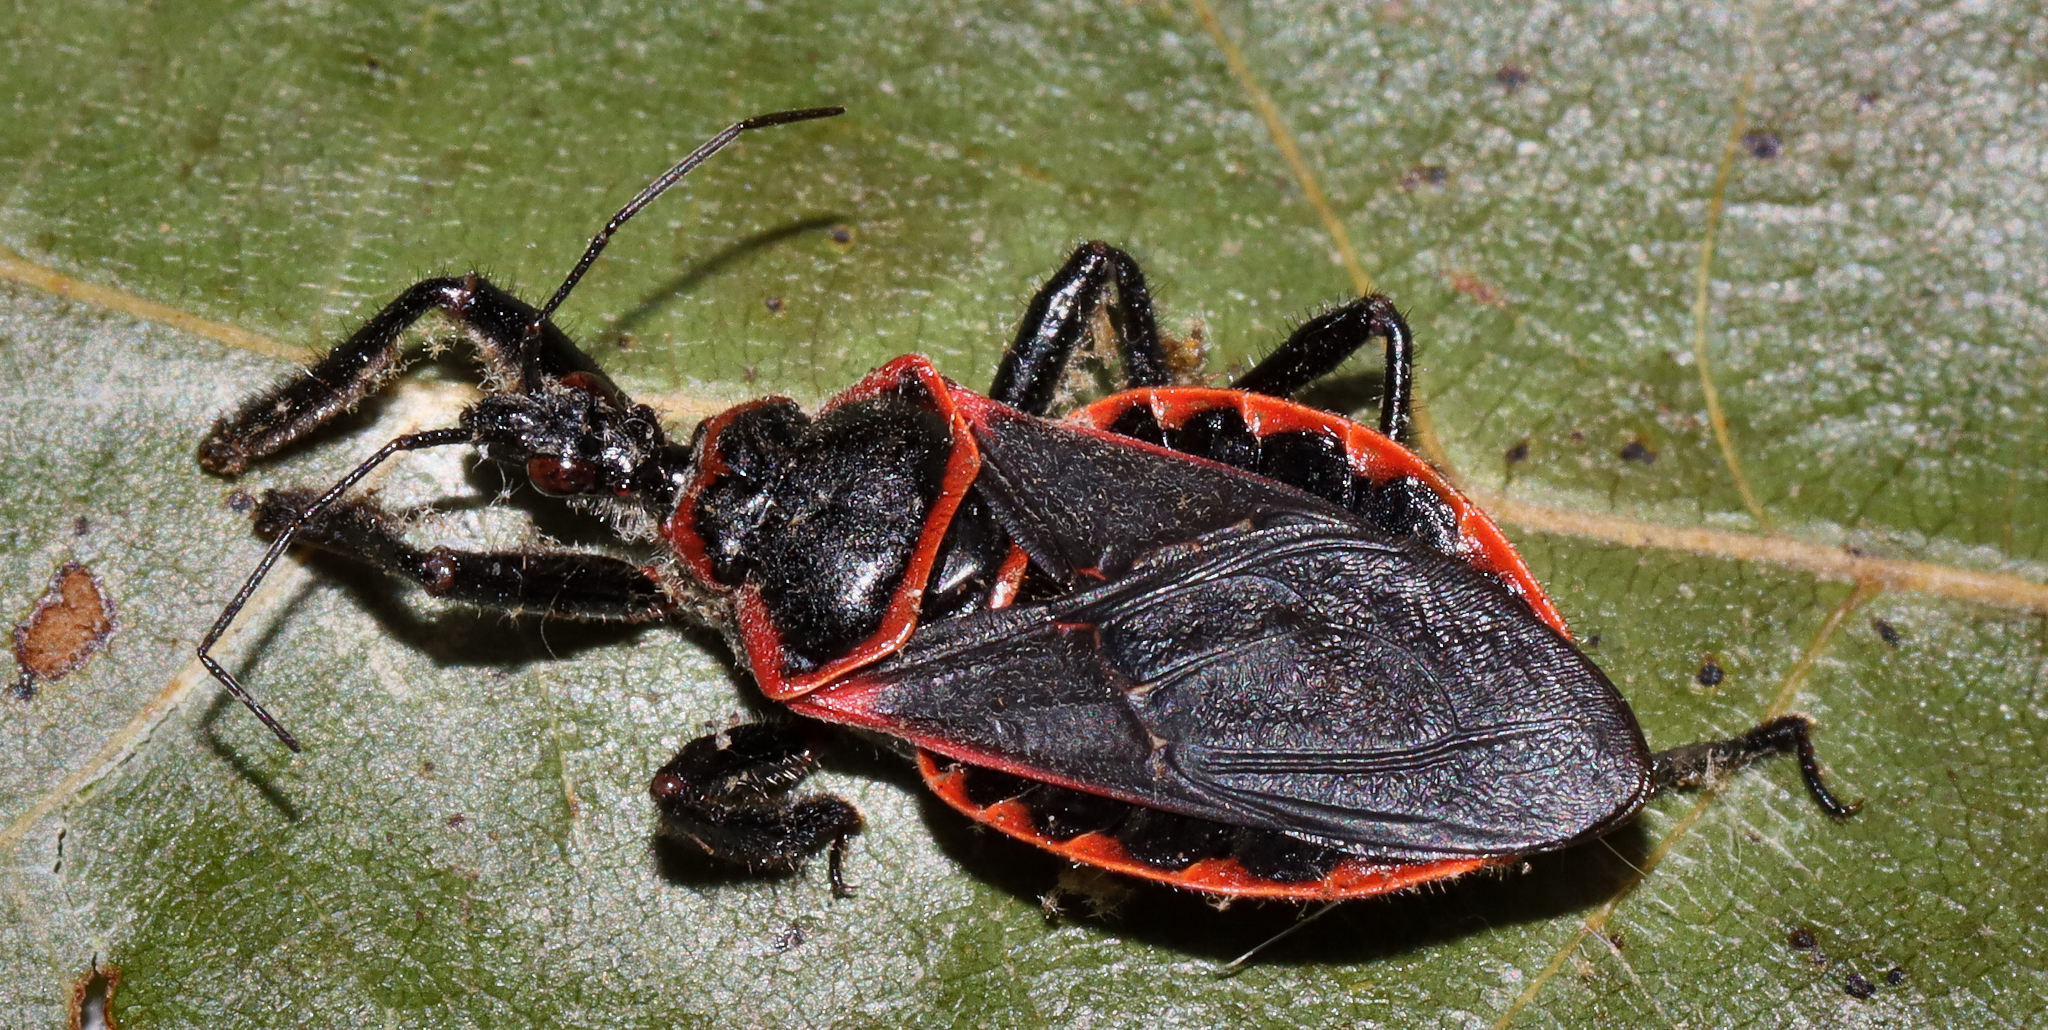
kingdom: Animalia
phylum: Arthropoda
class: Insecta
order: Hemiptera
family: Reduviidae
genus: Apiomerus
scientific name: Apiomerus crassipes
